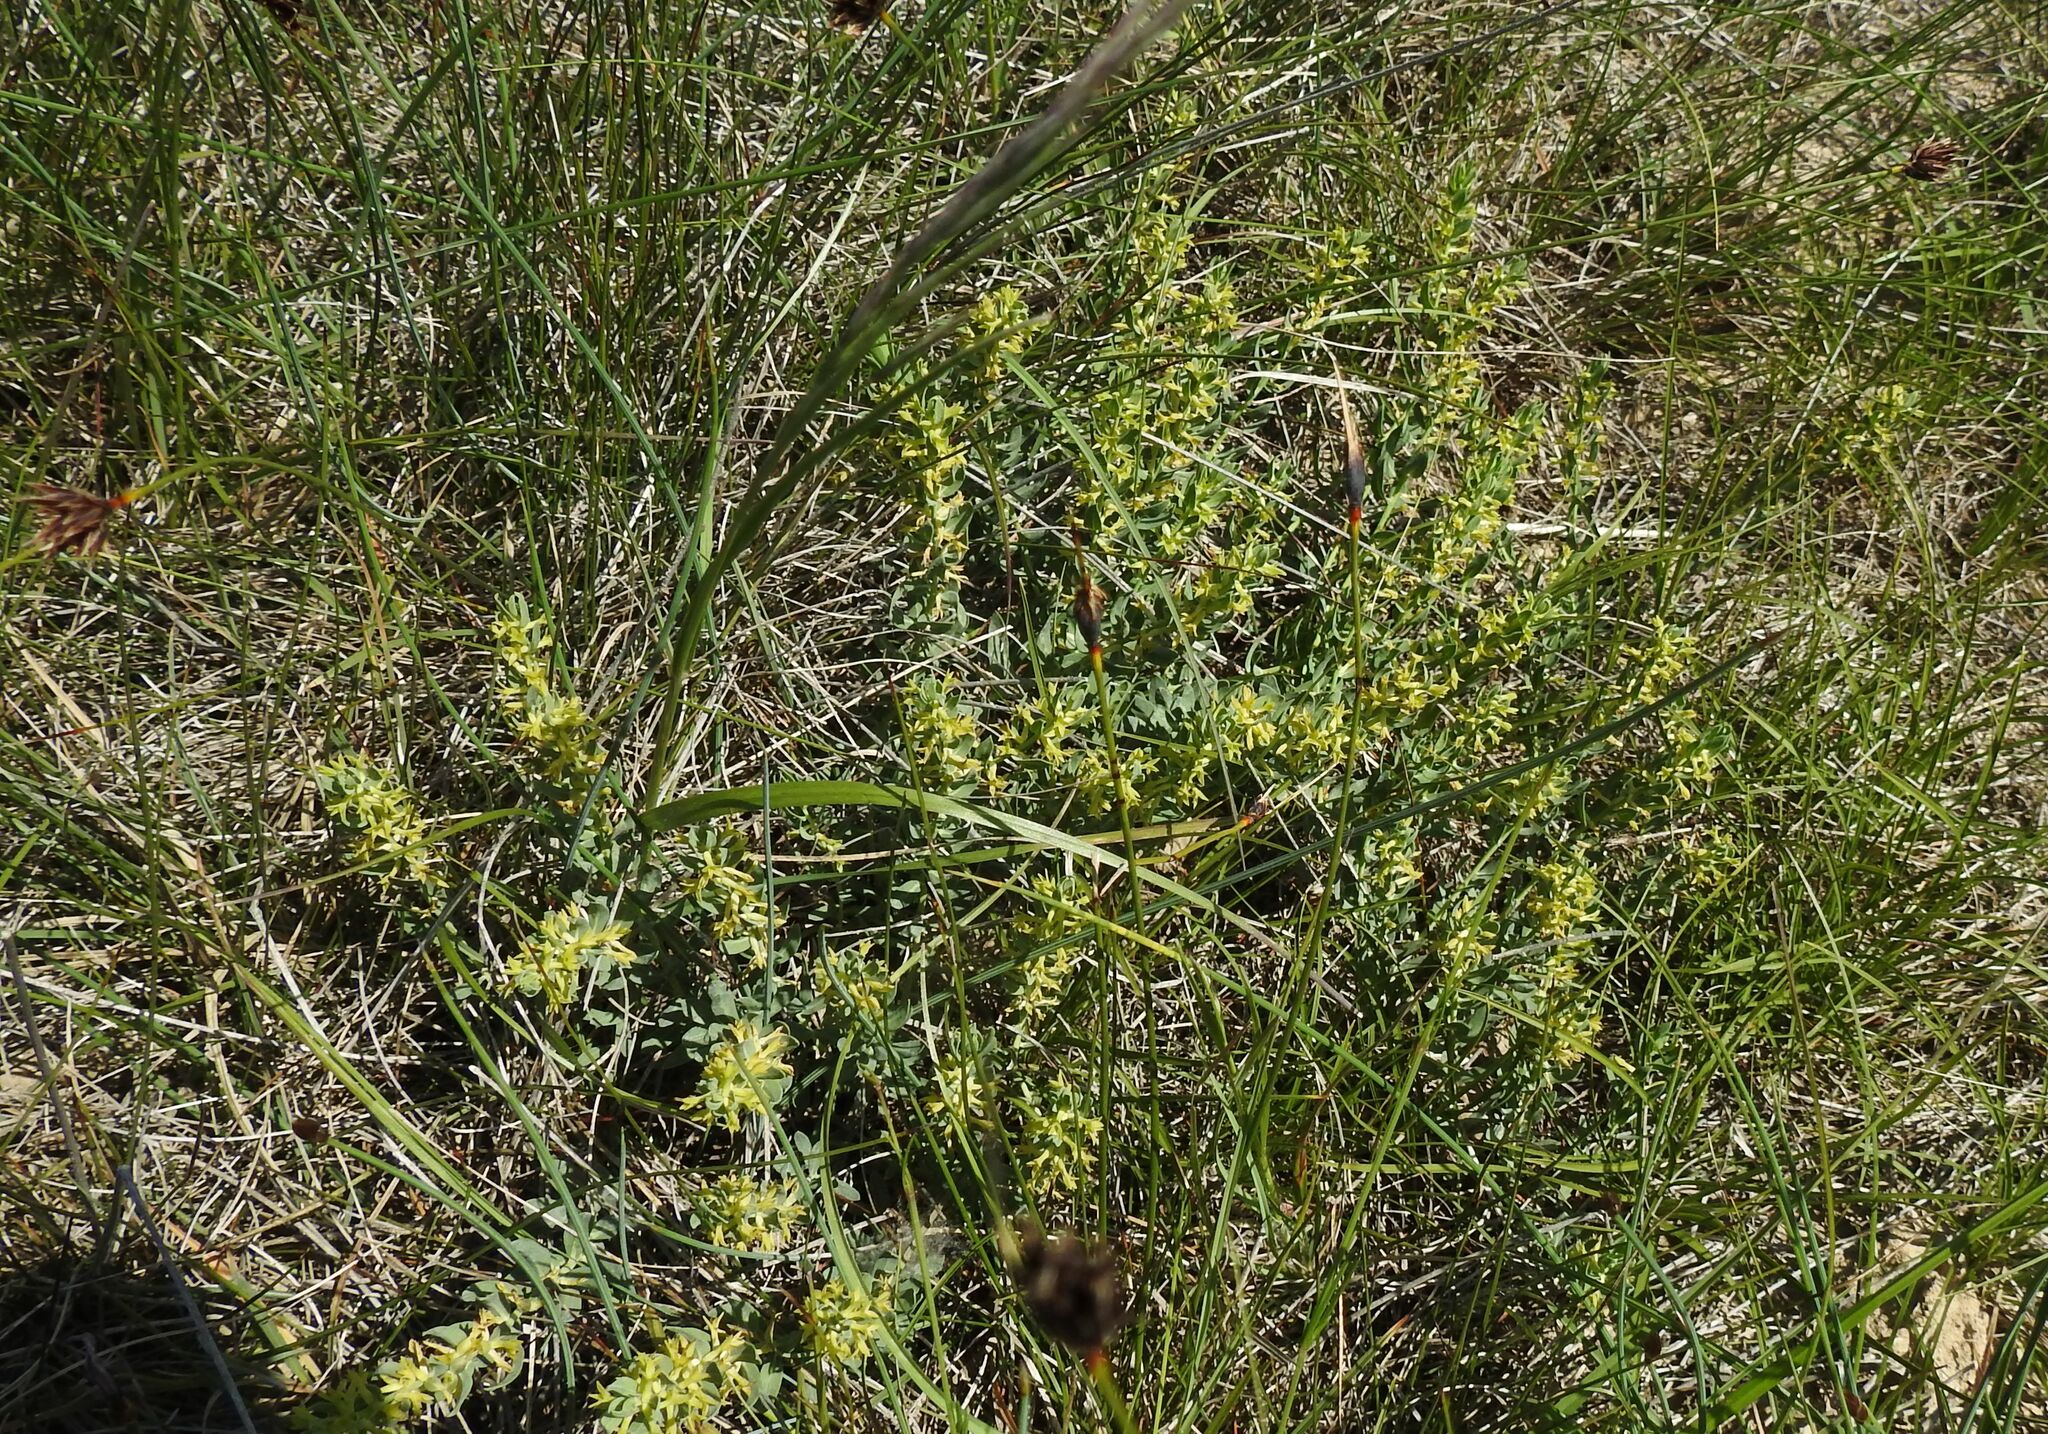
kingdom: Plantae
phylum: Tracheophyta
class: Magnoliopsida
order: Malvales
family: Thymelaeaceae
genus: Thymelaea
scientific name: Thymelaea sanamunda
